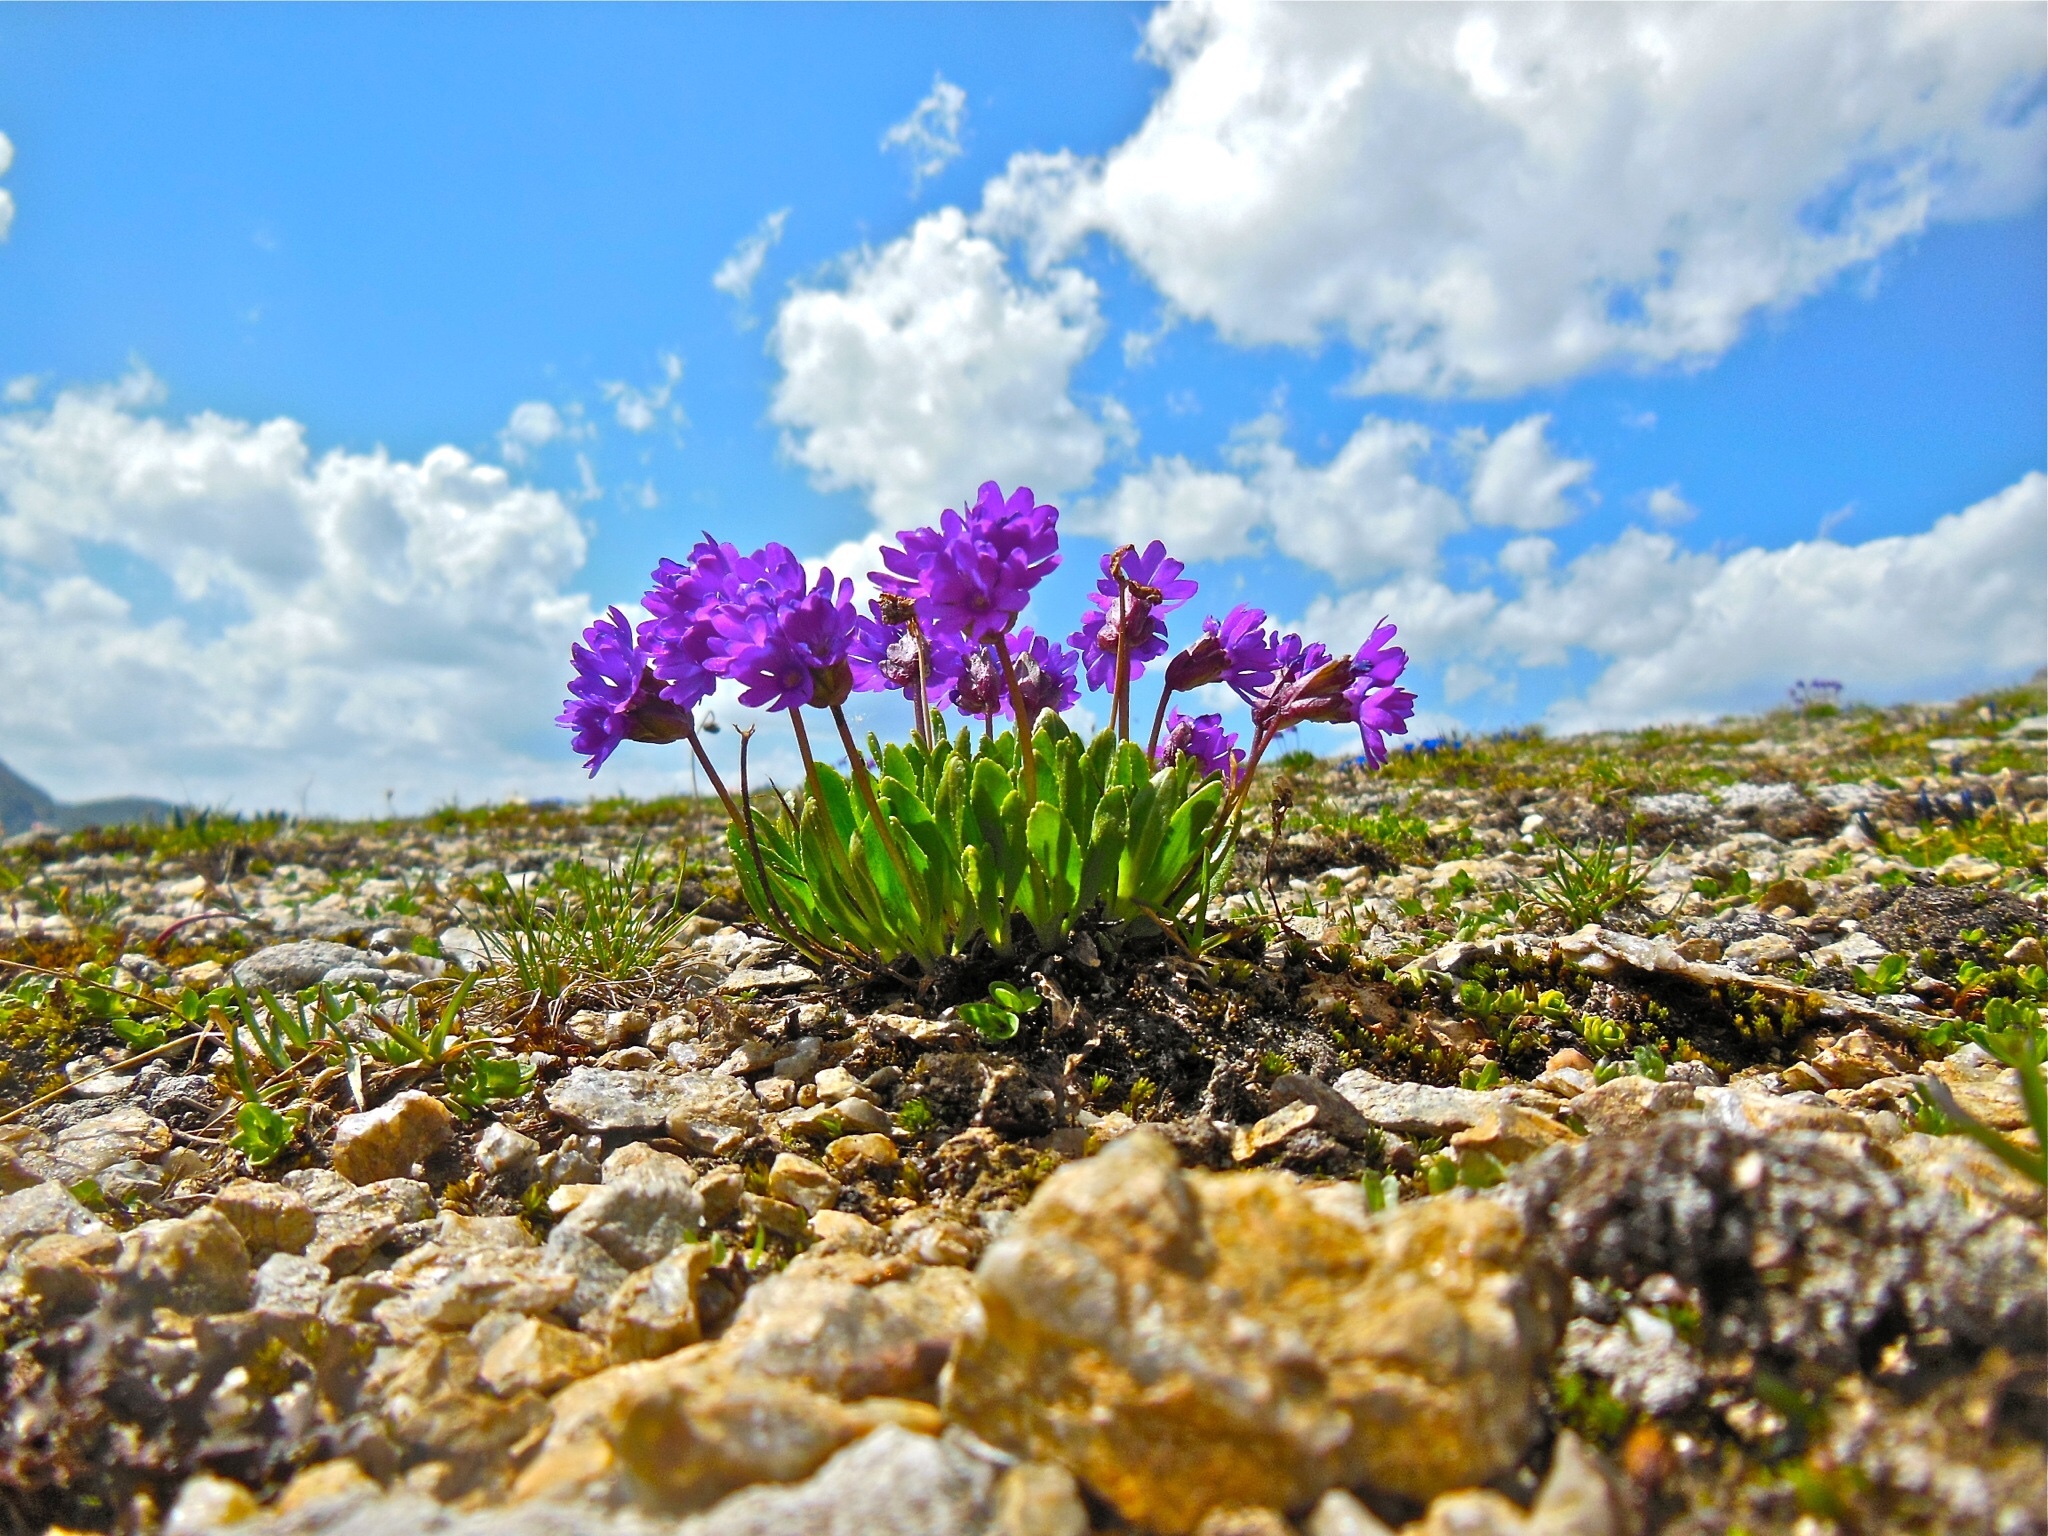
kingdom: Plantae
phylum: Tracheophyta
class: Magnoliopsida
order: Ericales
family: Primulaceae
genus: Primula
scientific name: Primula glutinosa
